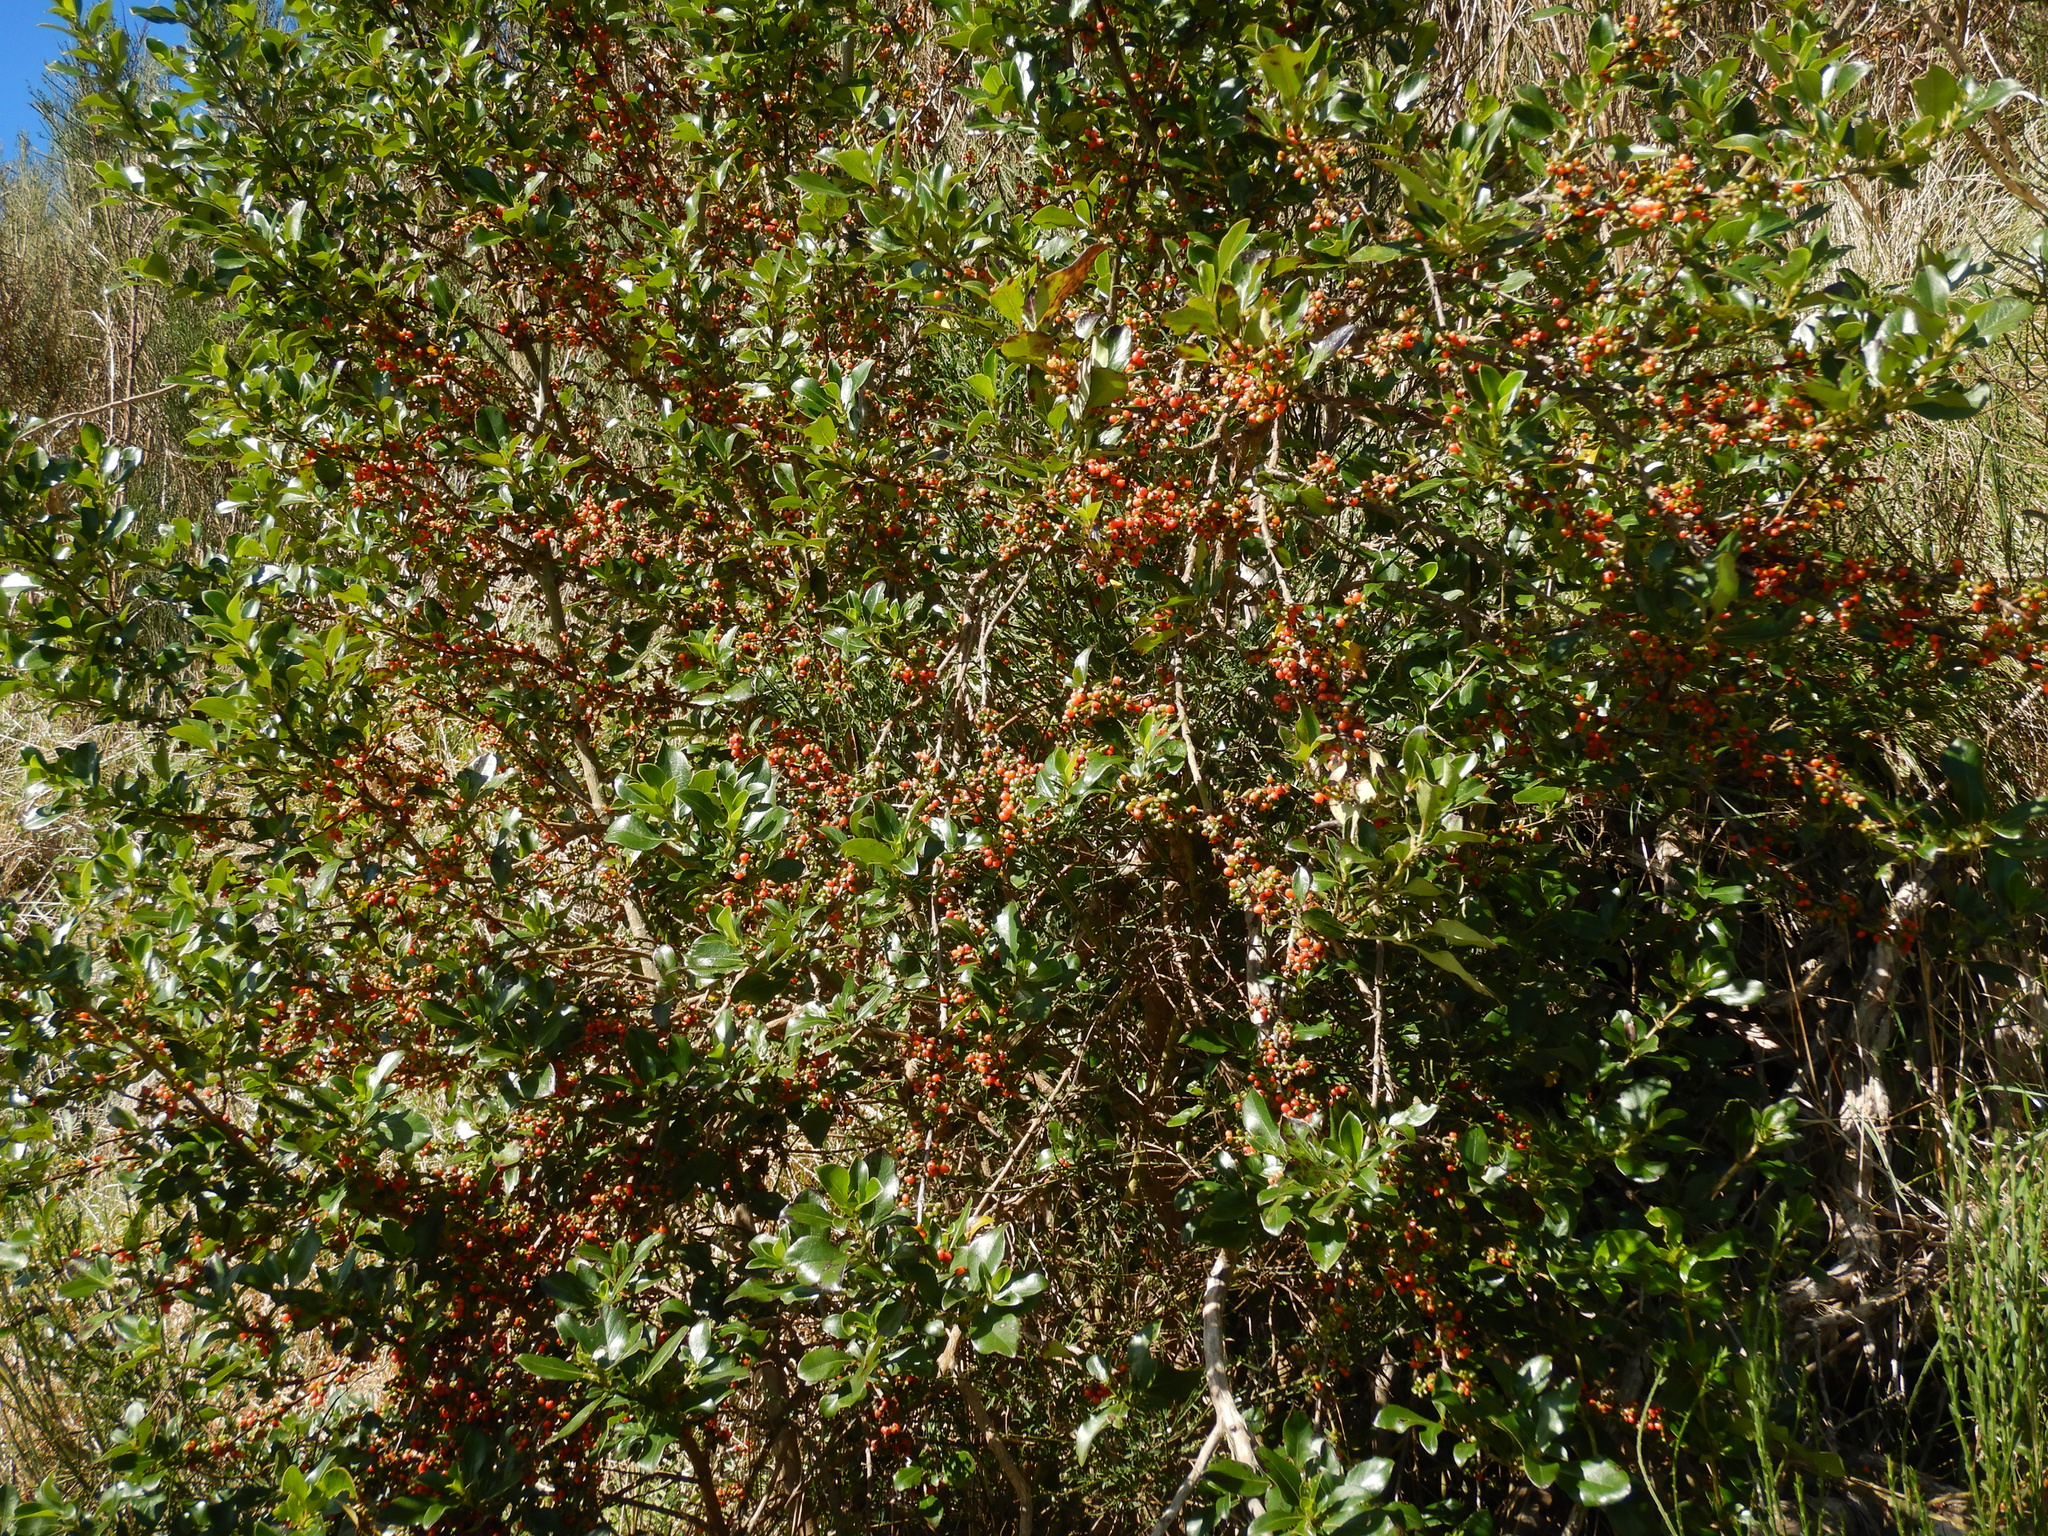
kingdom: Plantae
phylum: Tracheophyta
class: Magnoliopsida
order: Gentianales
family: Rubiaceae
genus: Coprosma
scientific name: Coprosma robusta
